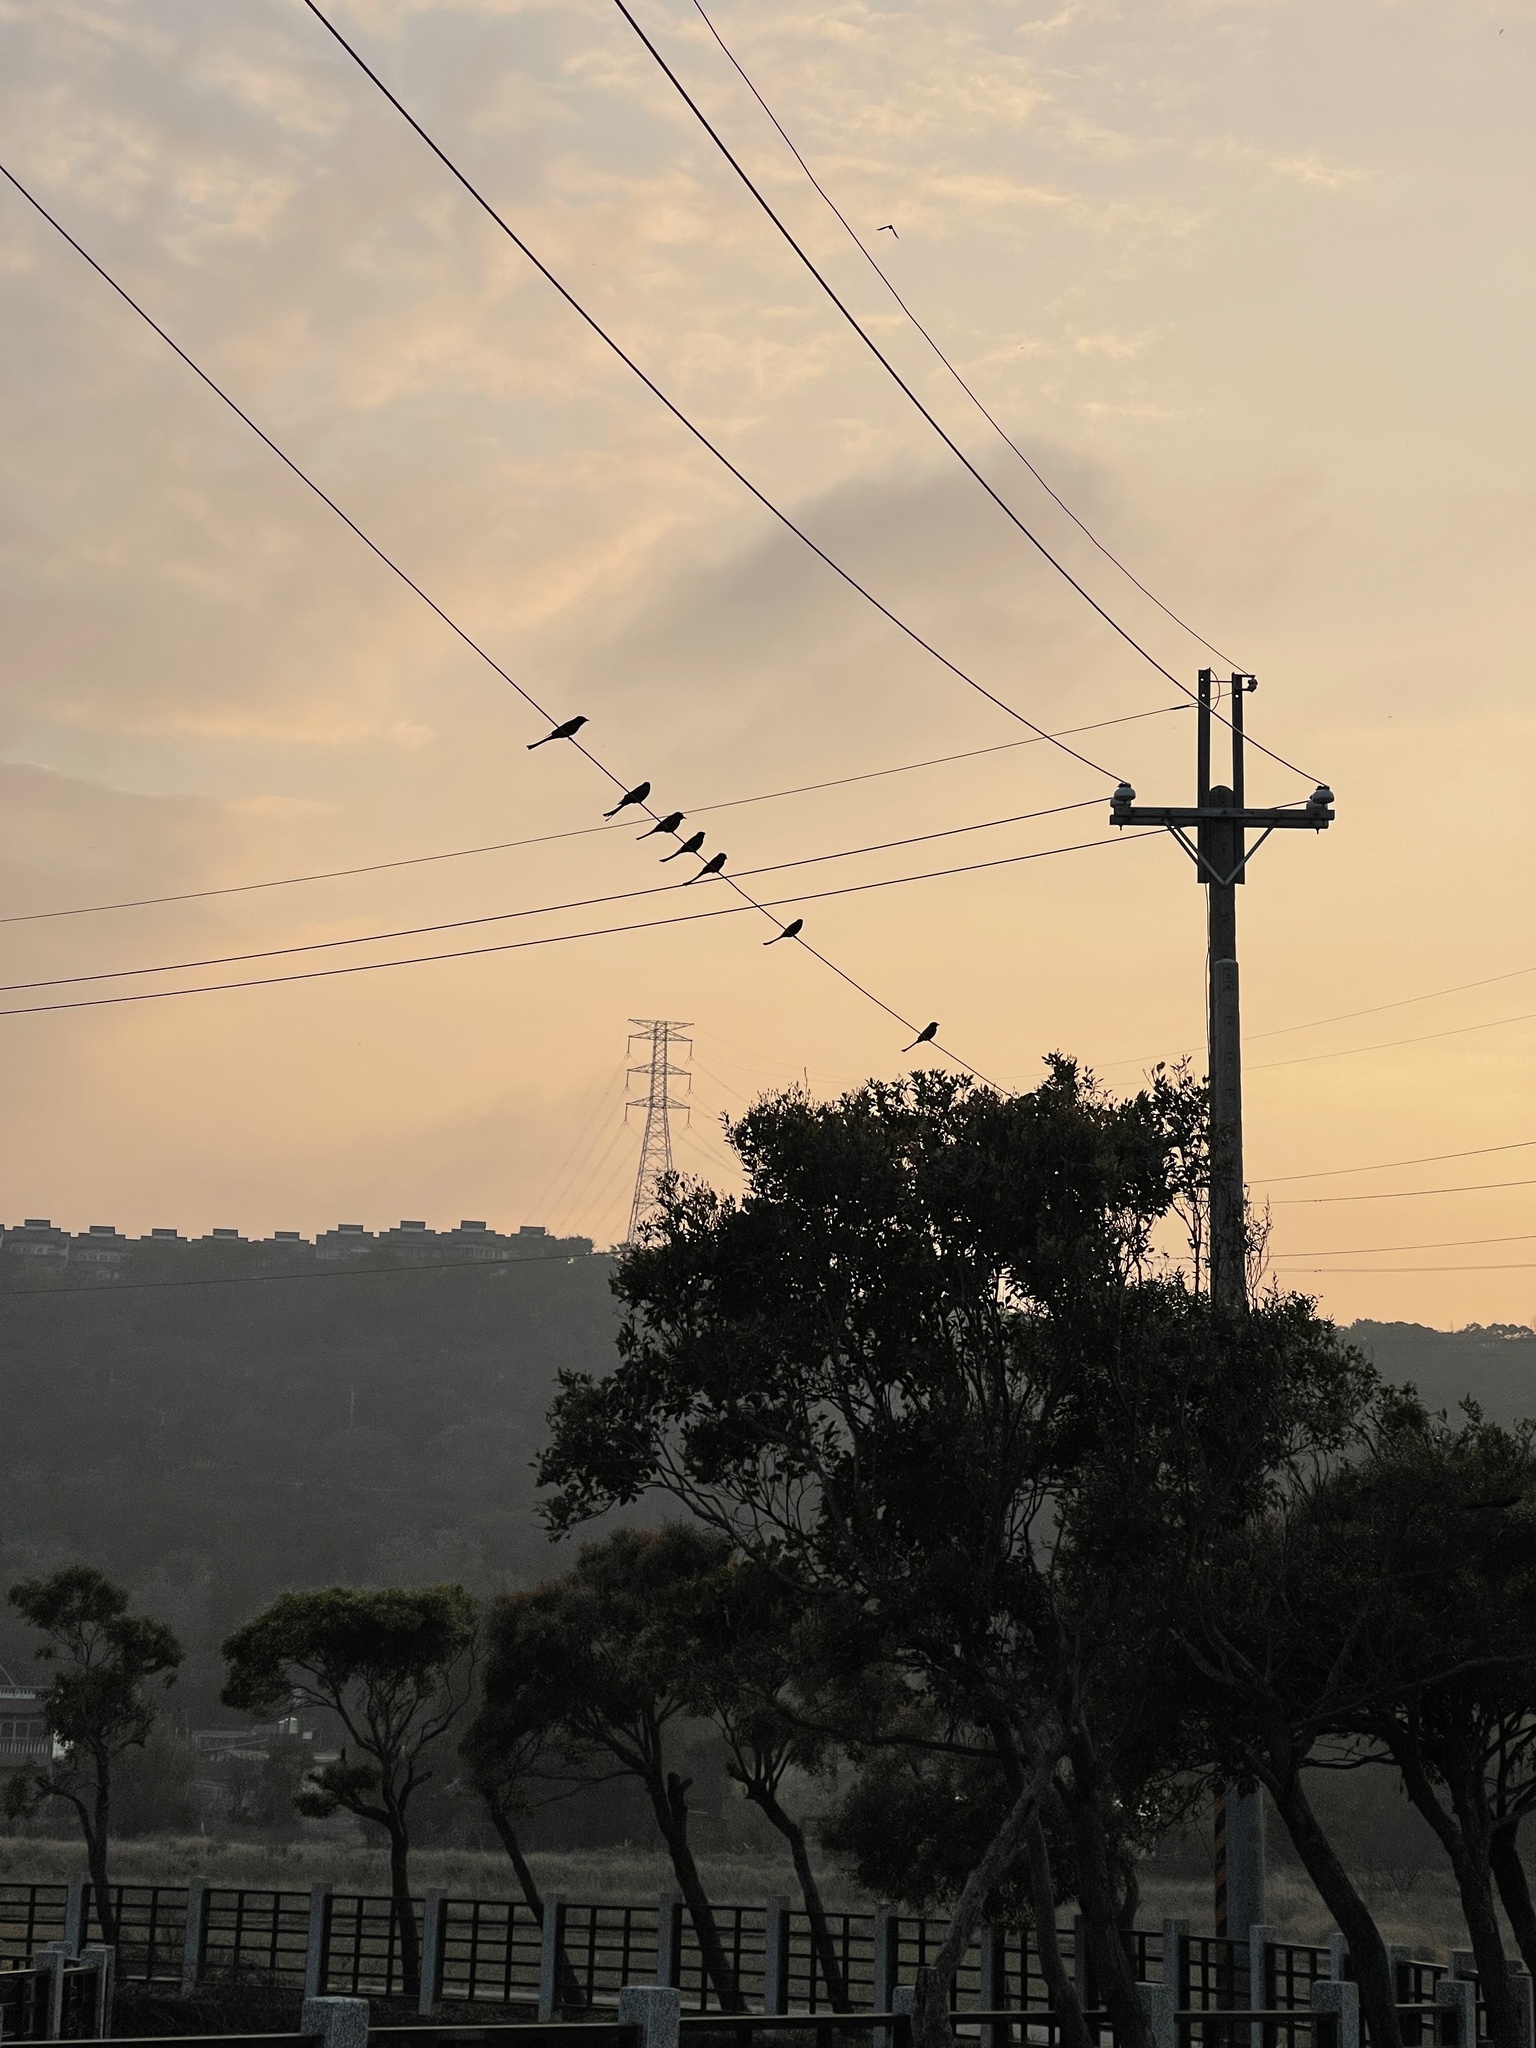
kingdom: Animalia
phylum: Chordata
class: Aves
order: Passeriformes
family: Dicruridae
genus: Dicrurus
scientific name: Dicrurus macrocercus
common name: Black drongo
